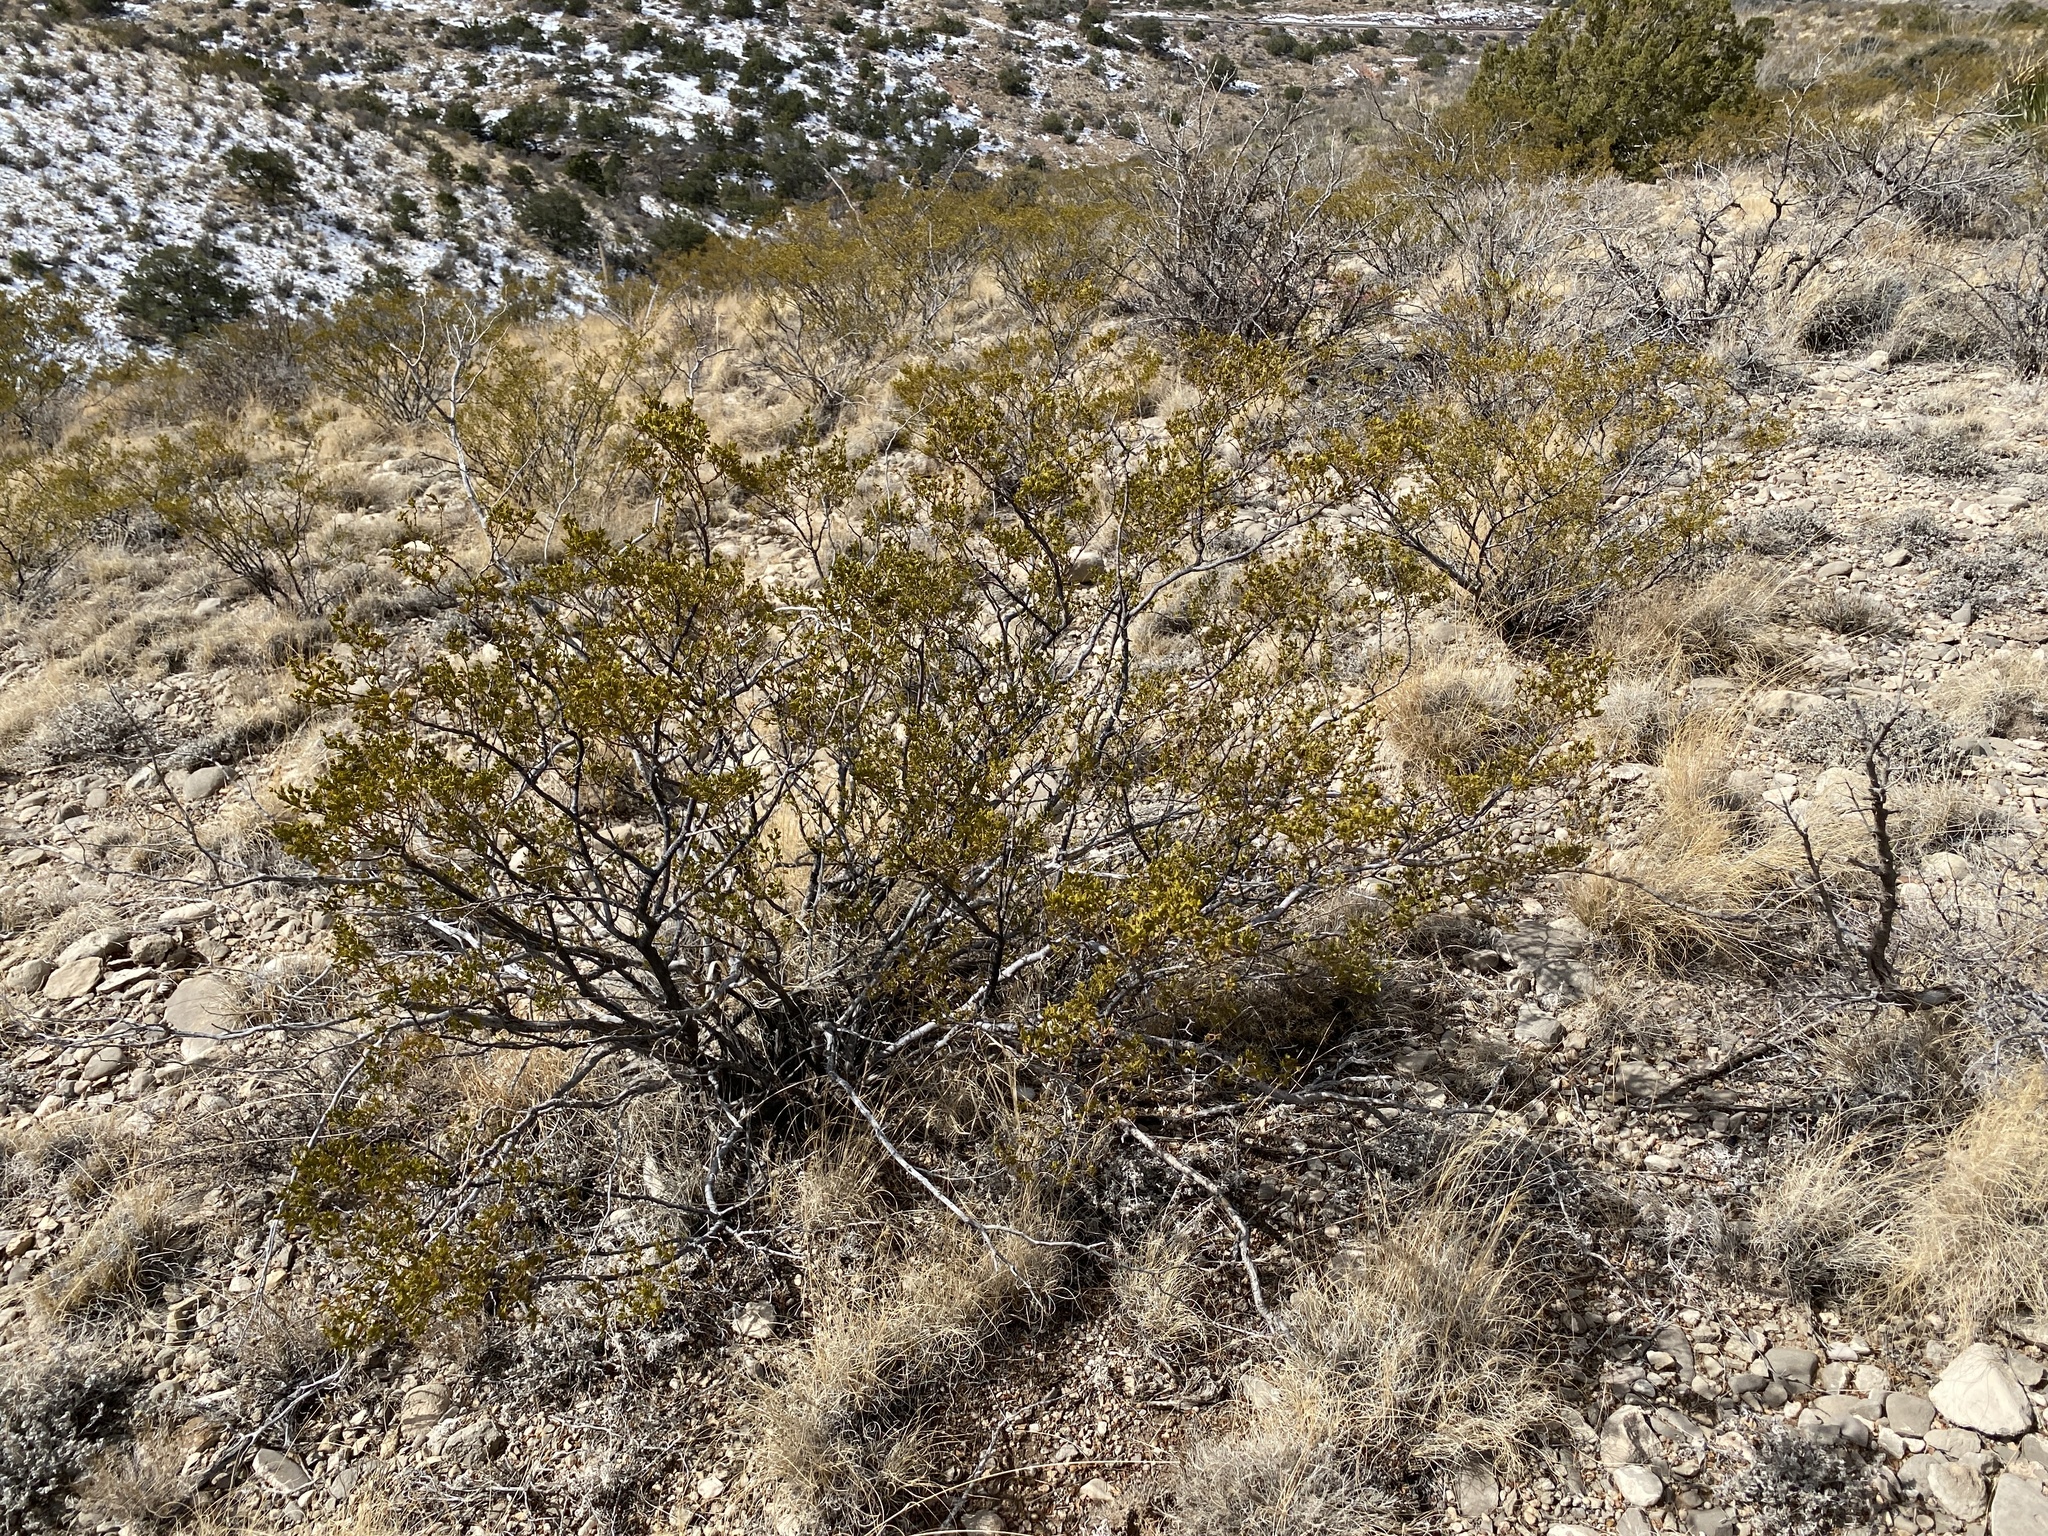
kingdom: Plantae
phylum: Tracheophyta
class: Magnoliopsida
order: Zygophyllales
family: Zygophyllaceae
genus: Larrea
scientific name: Larrea tridentata
